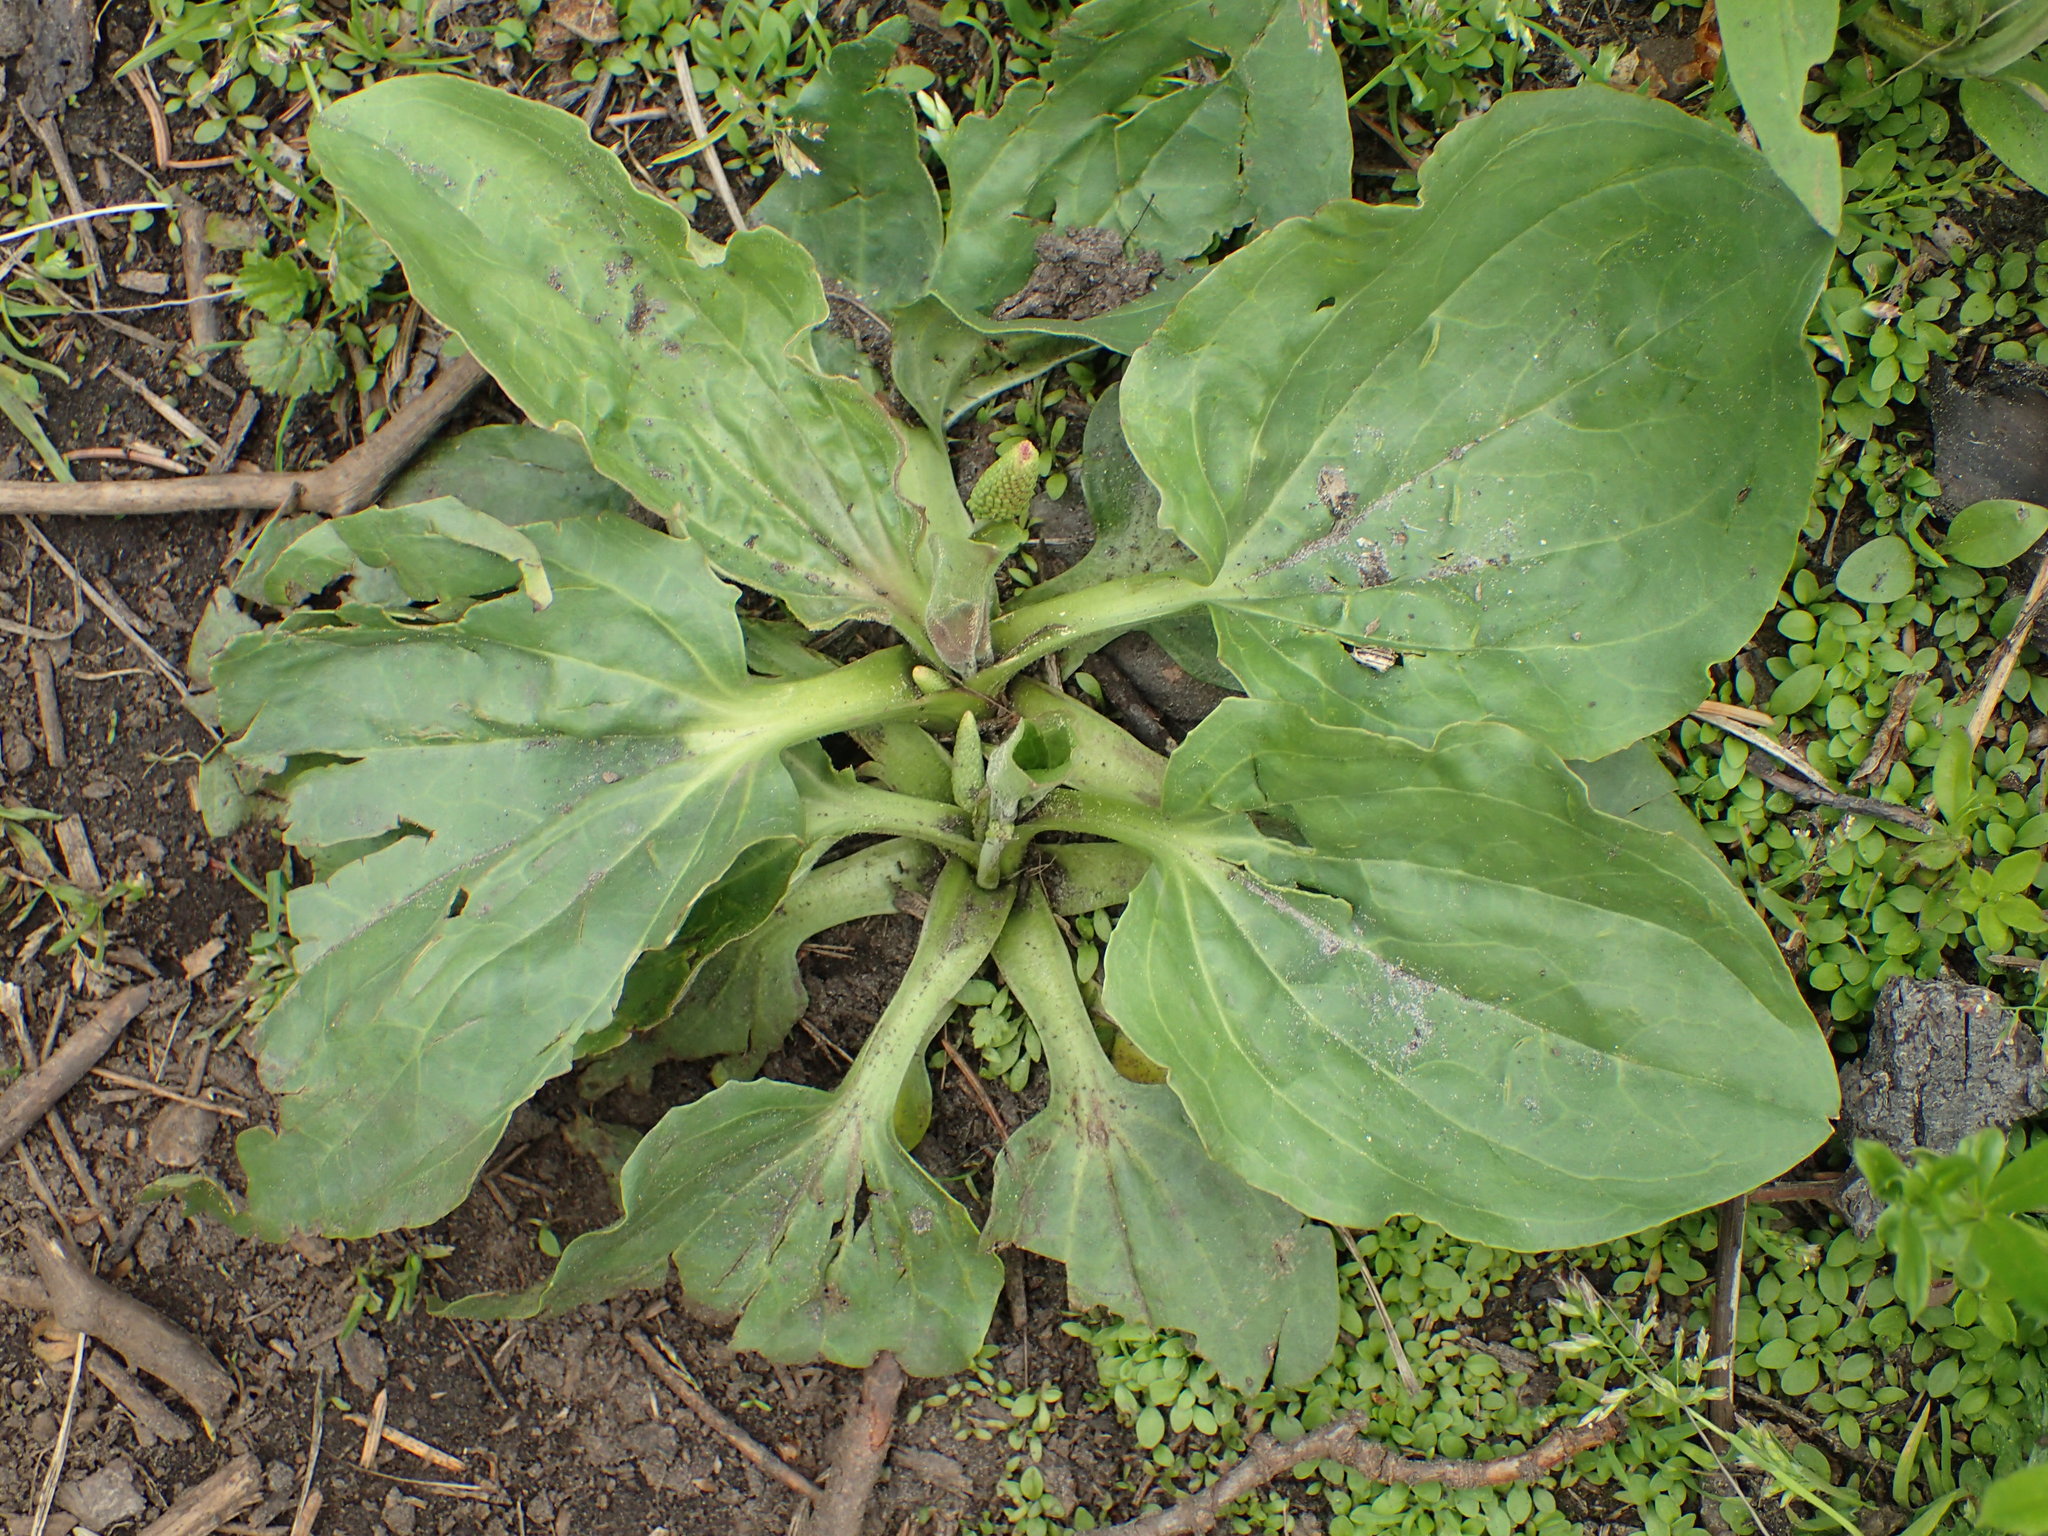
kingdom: Plantae
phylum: Tracheophyta
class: Magnoliopsida
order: Lamiales
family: Plantaginaceae
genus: Plantago
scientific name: Plantago major
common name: Common plantain
